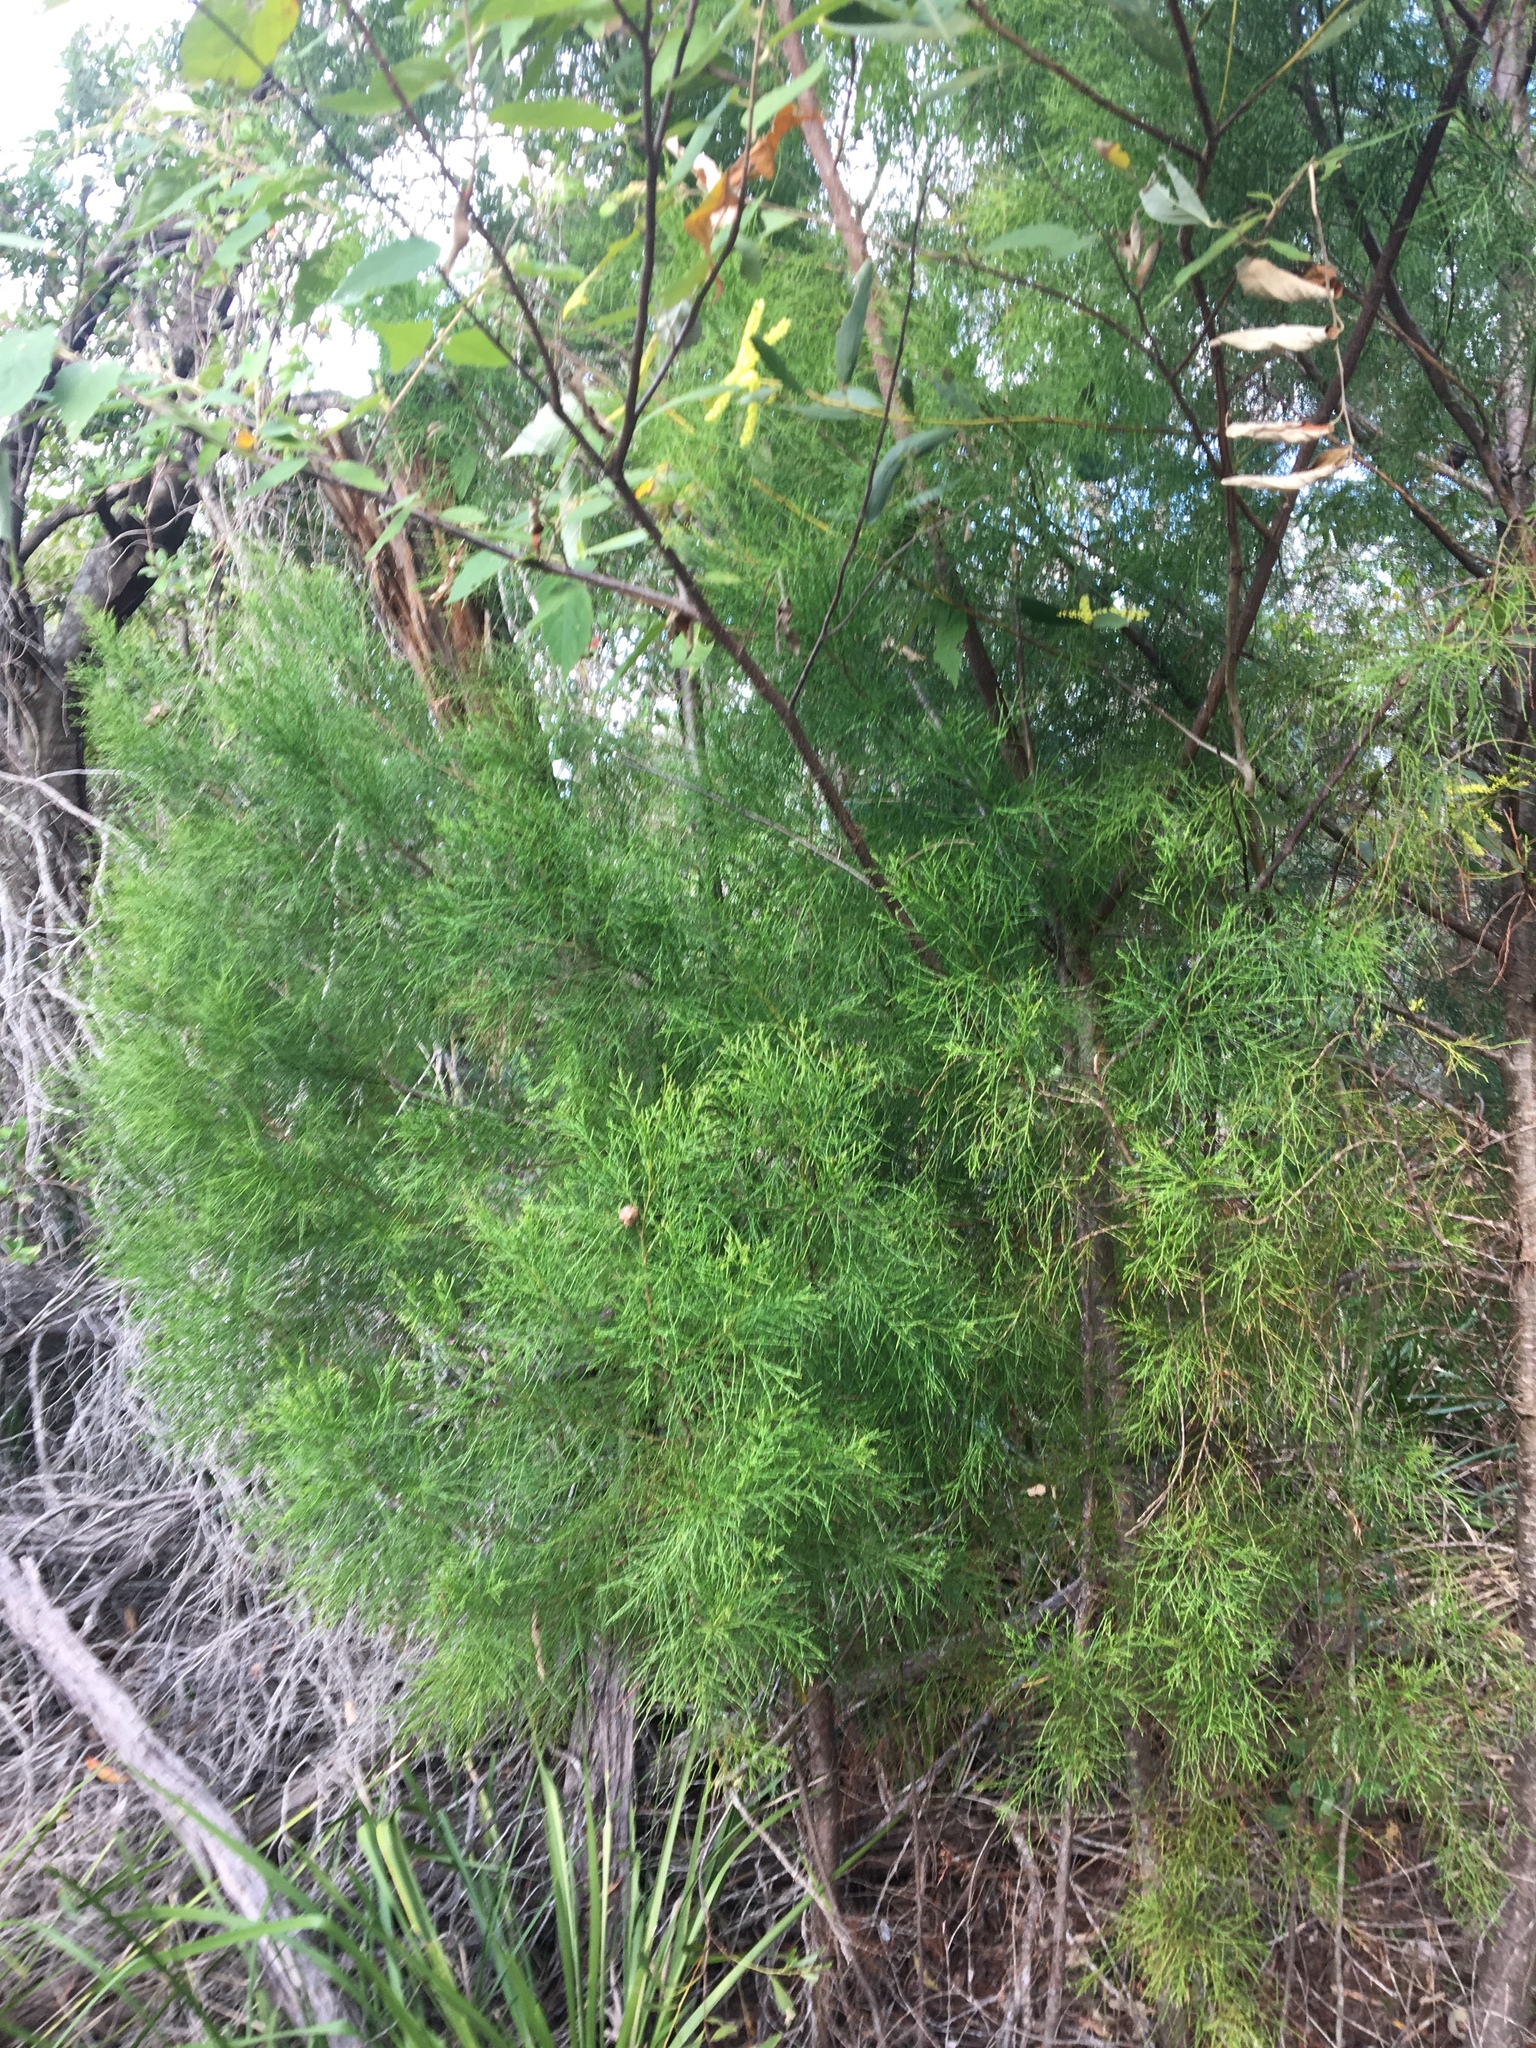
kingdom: Plantae
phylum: Tracheophyta
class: Pinopsida
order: Pinales
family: Cupressaceae
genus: Callitris
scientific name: Callitris rhomboidea
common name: Illawara mountain pine
